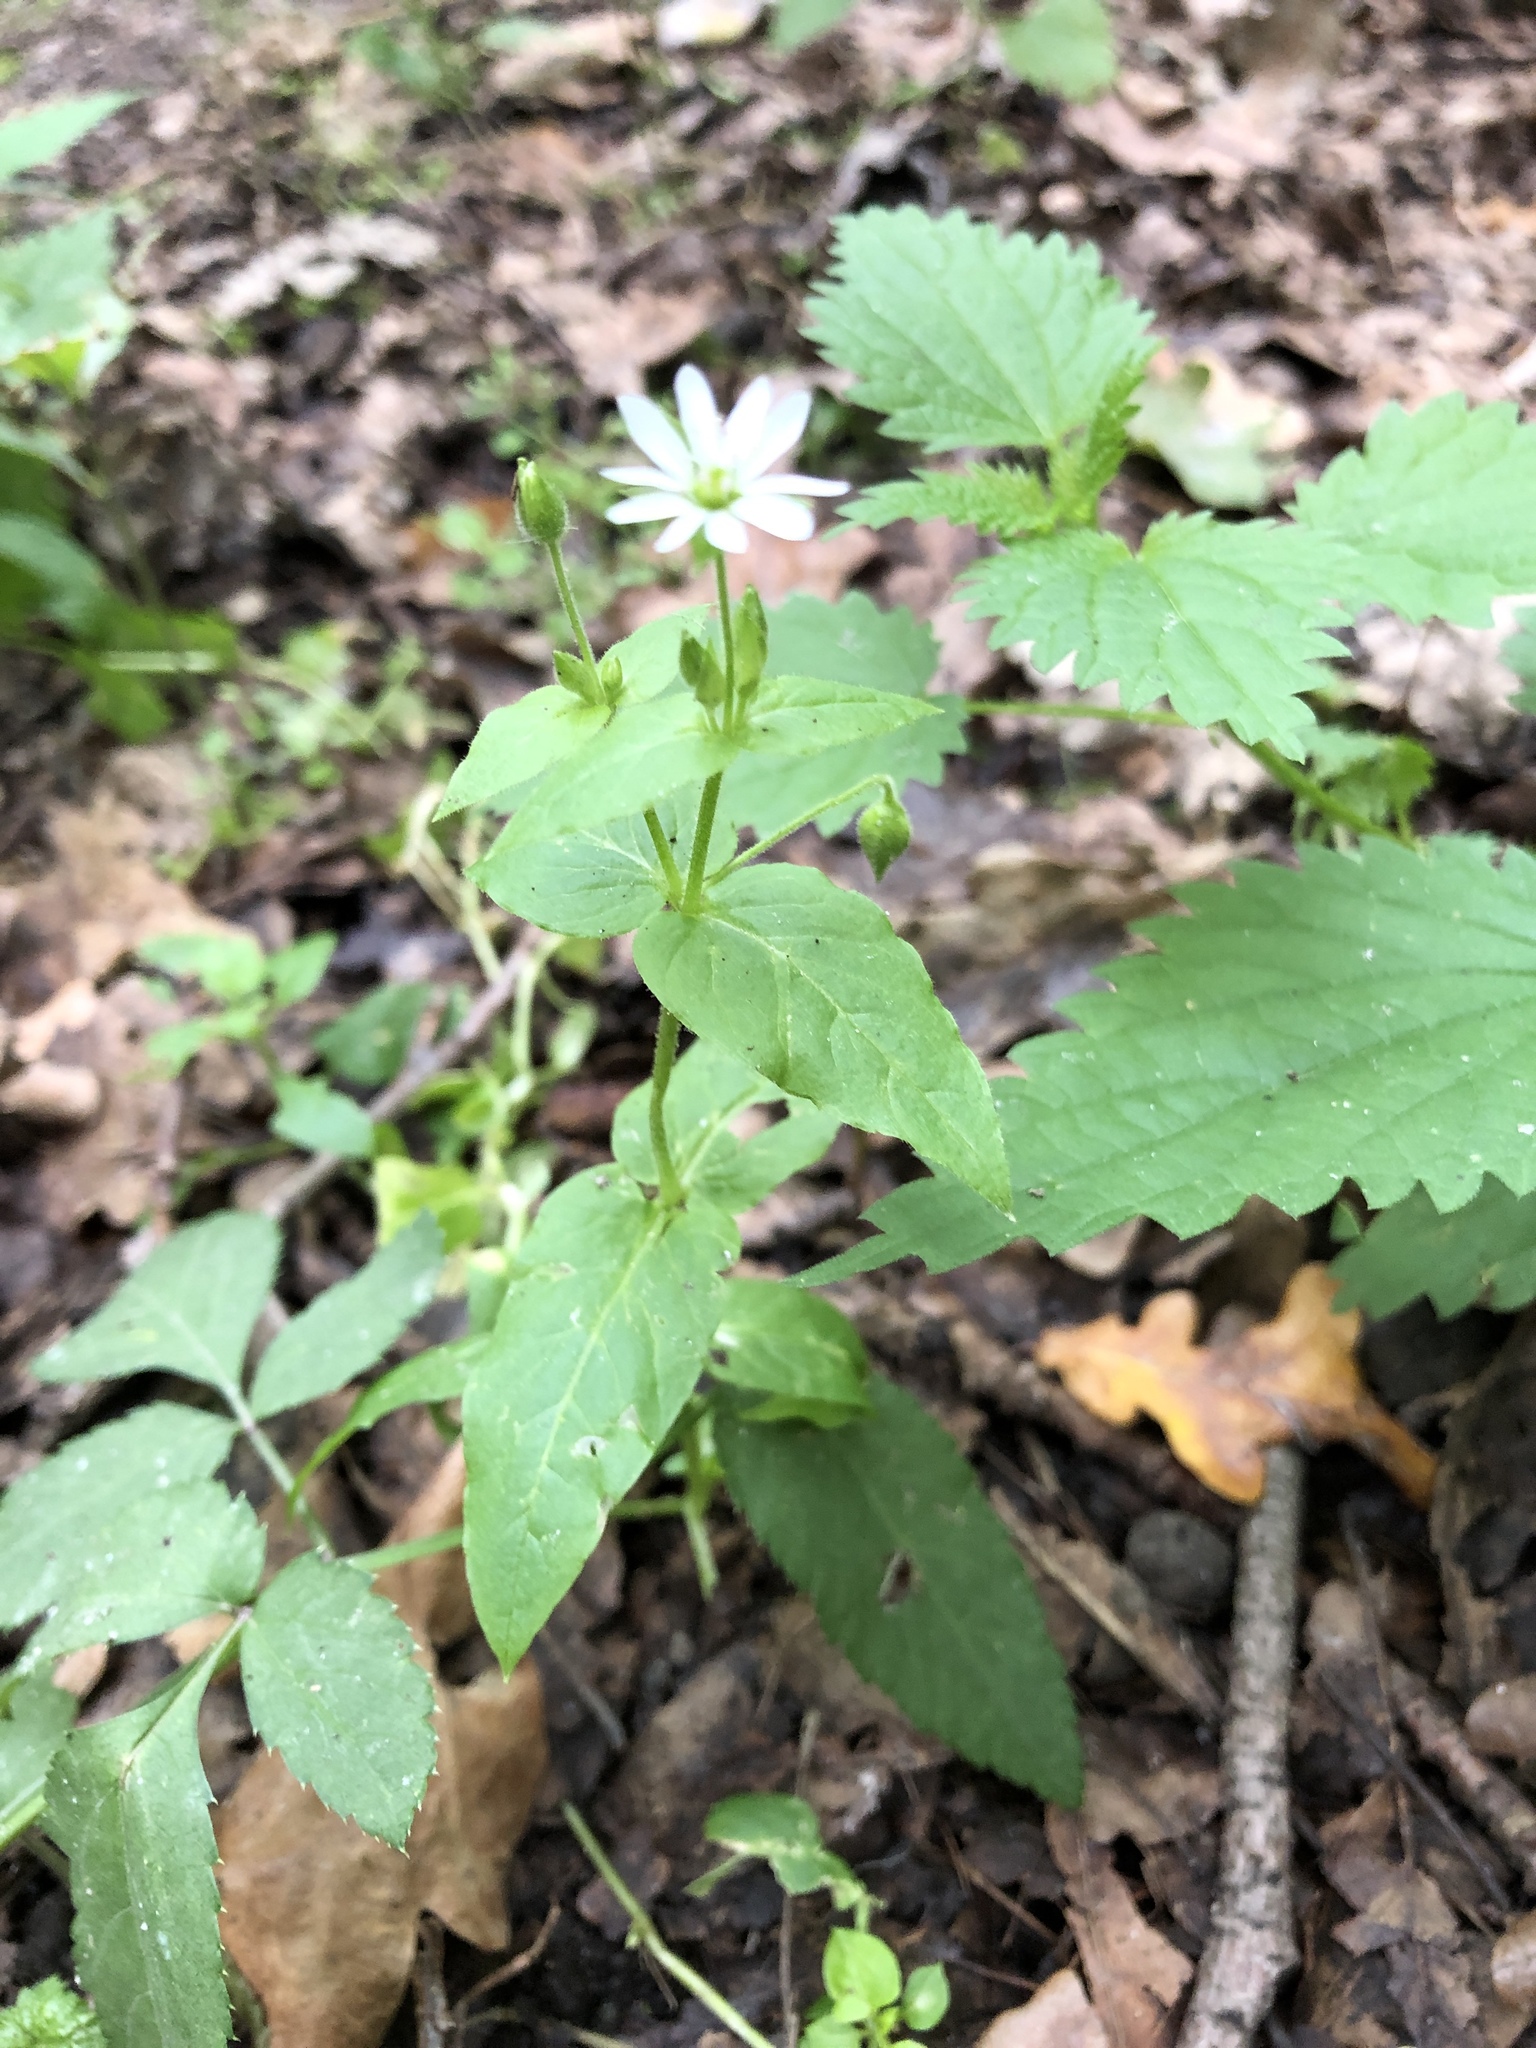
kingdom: Plantae
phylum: Tracheophyta
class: Magnoliopsida
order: Caryophyllales
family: Caryophyllaceae
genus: Stellaria
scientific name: Stellaria aquatica
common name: Water chickweed
